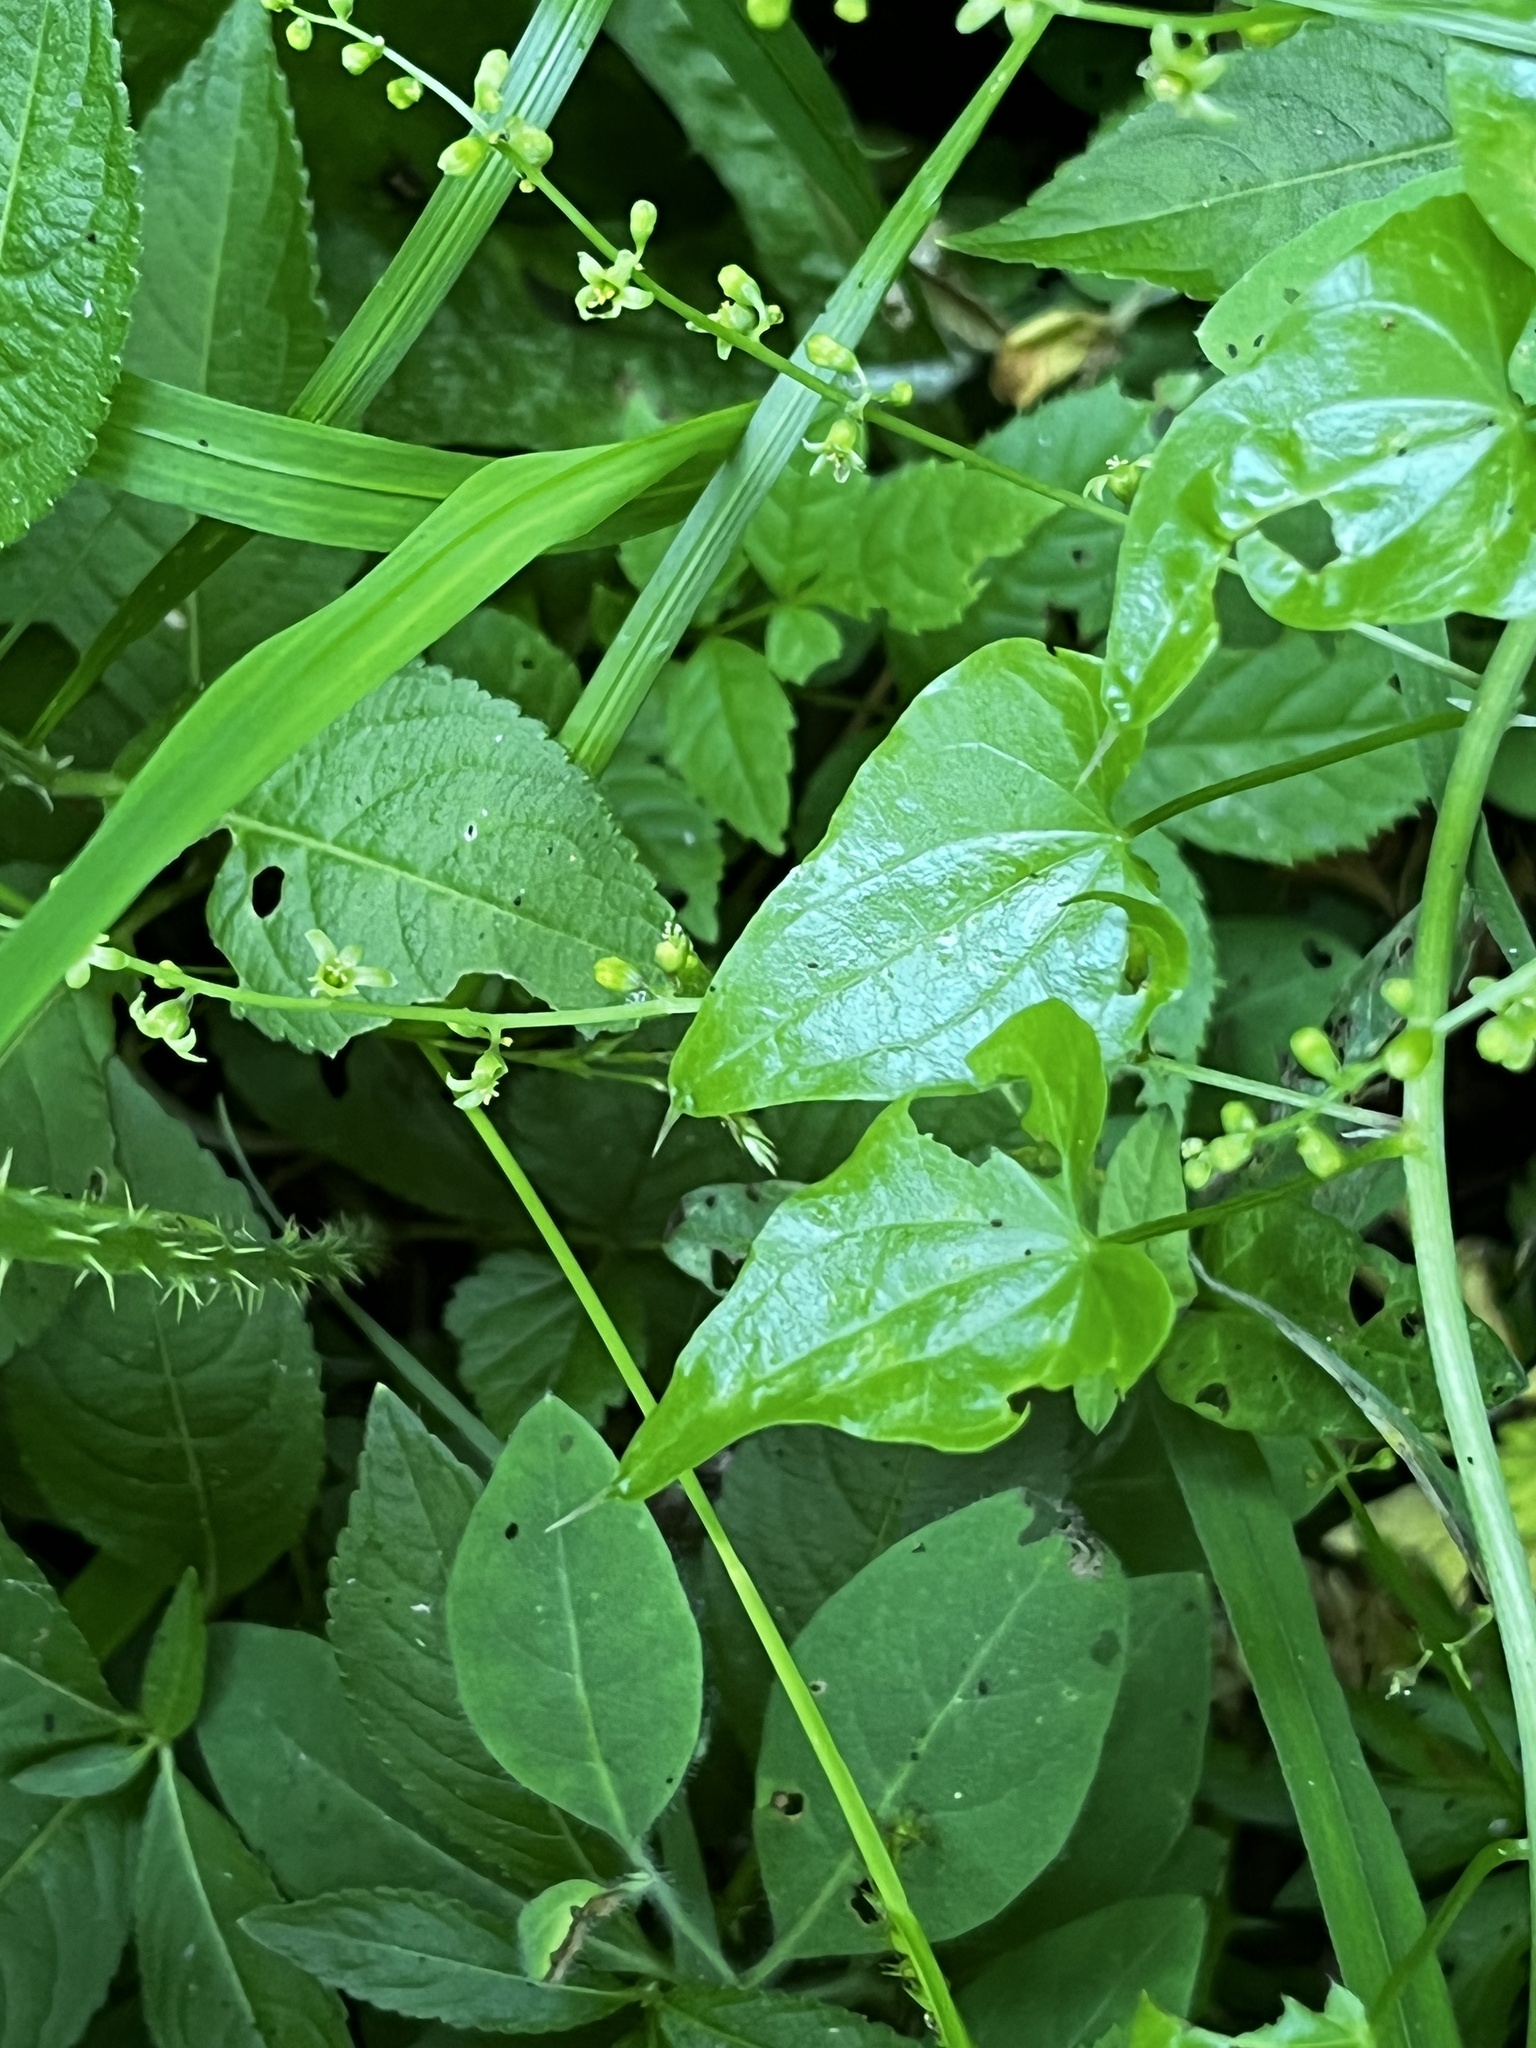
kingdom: Plantae
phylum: Tracheophyta
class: Liliopsida
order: Dioscoreales
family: Dioscoreaceae
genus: Dioscorea
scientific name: Dioscorea communis
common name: Black-bindweed
